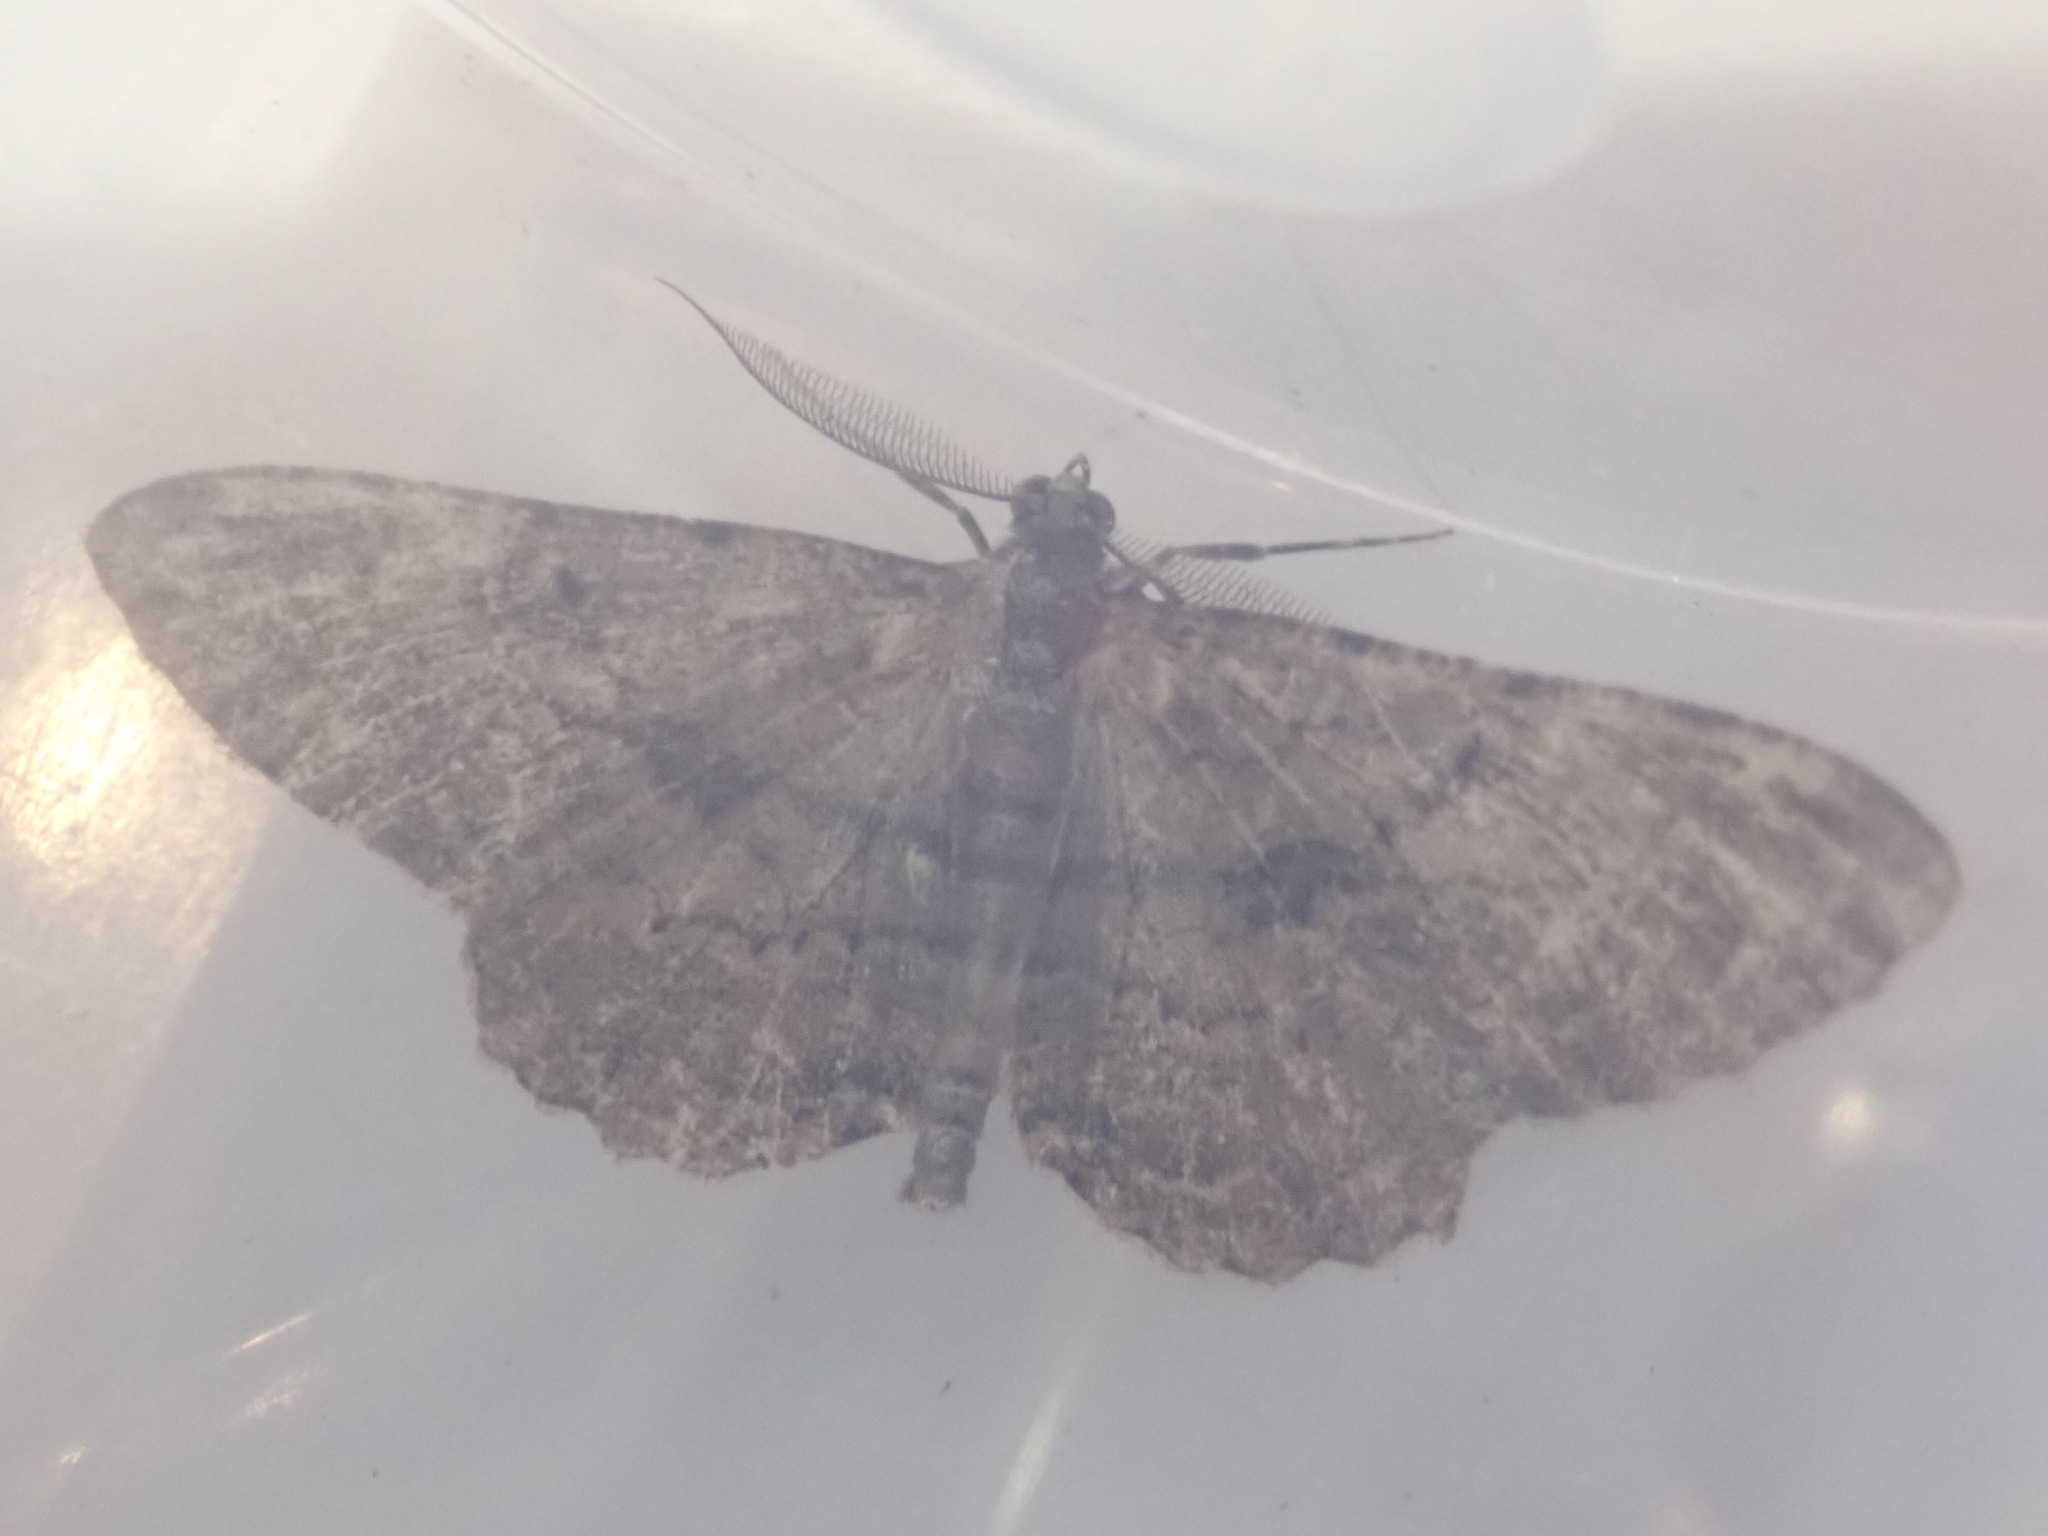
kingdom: Animalia
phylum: Arthropoda
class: Insecta
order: Lepidoptera
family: Geometridae
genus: Peribatodes
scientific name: Peribatodes rhomboidaria
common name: Willow beauty
